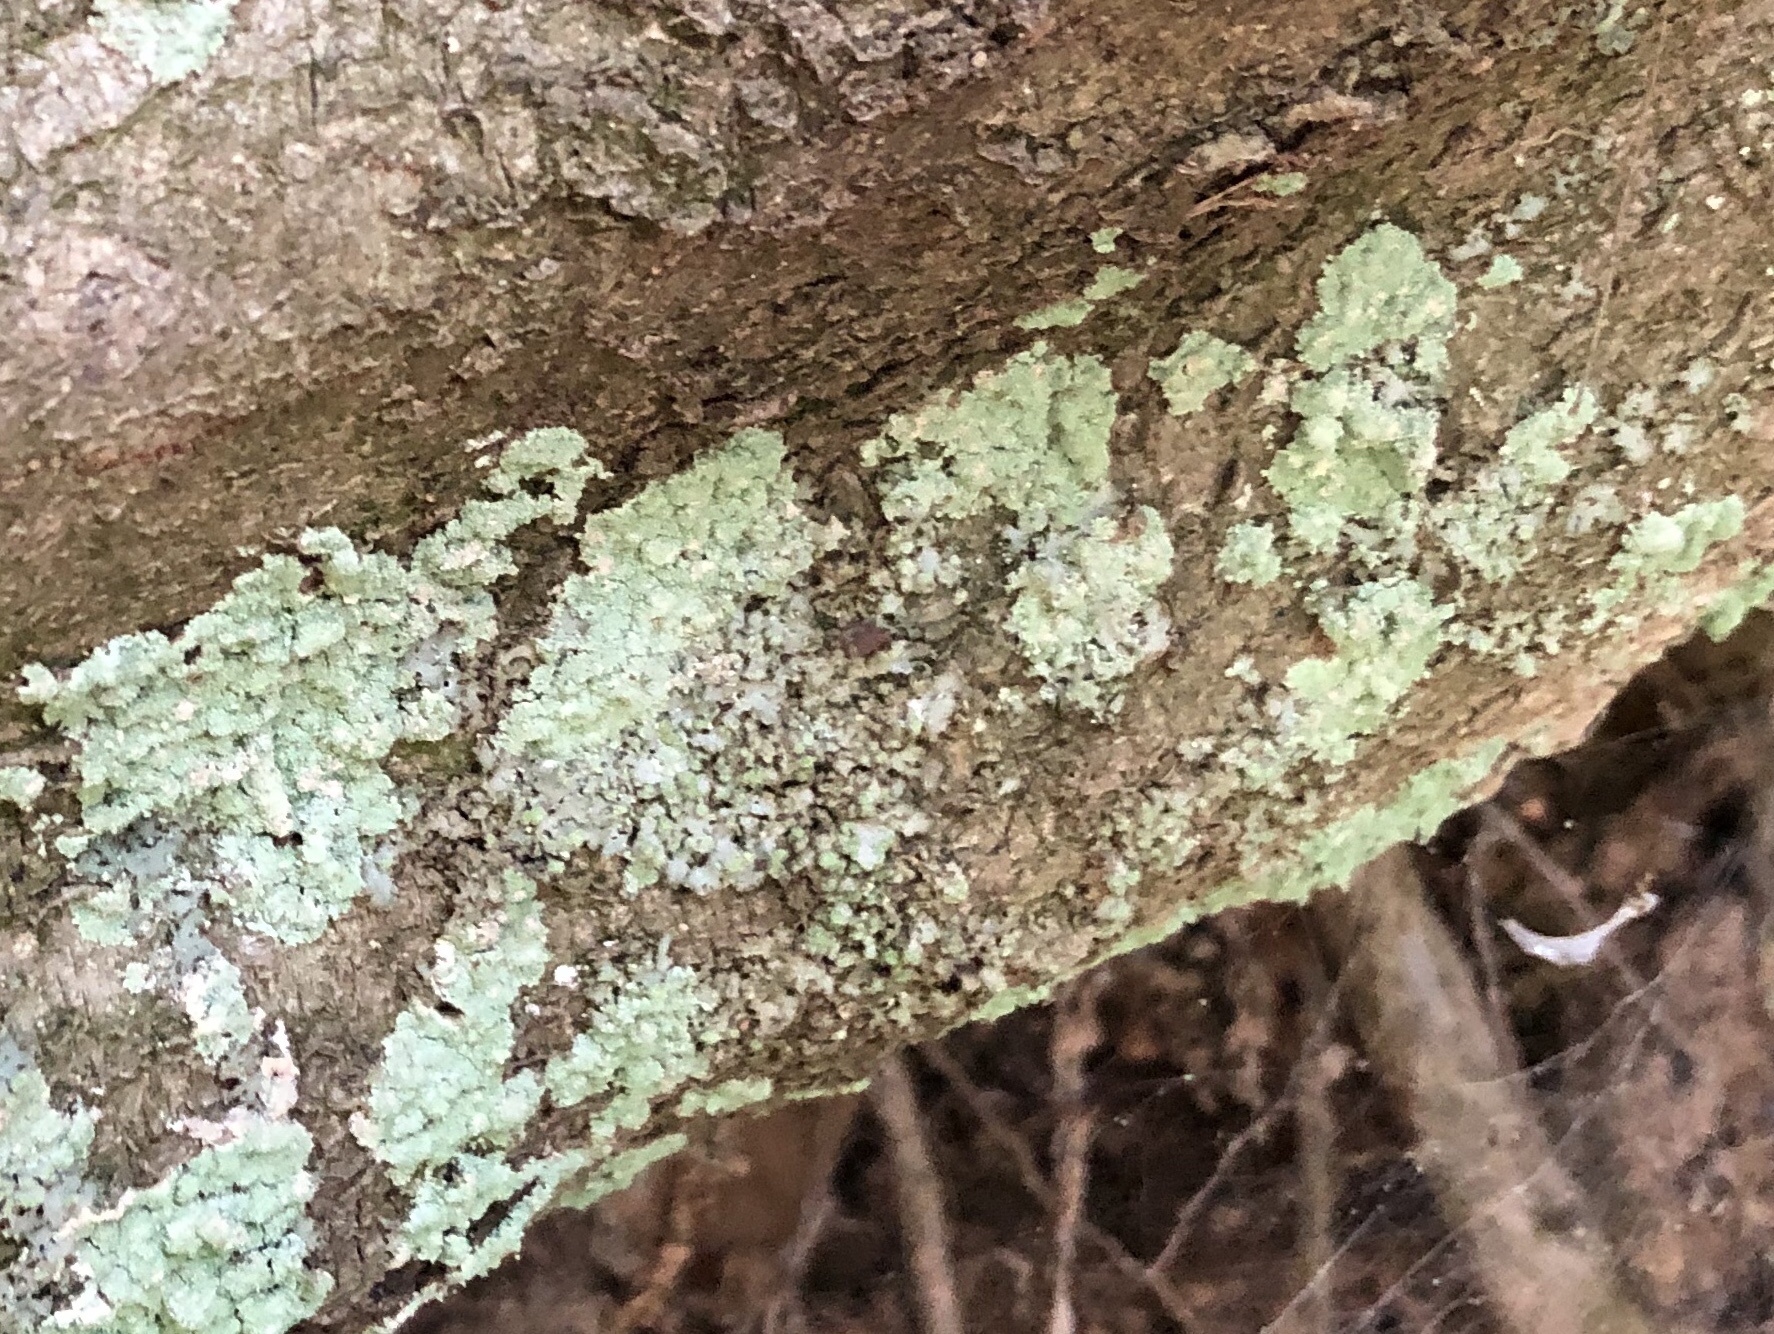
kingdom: Fungi
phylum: Ascomycota
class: Lecanoromycetes
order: Lecanorales
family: Stereocaulaceae
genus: Lepraria
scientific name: Lepraria lobificans
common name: Fluffy dust lichen
